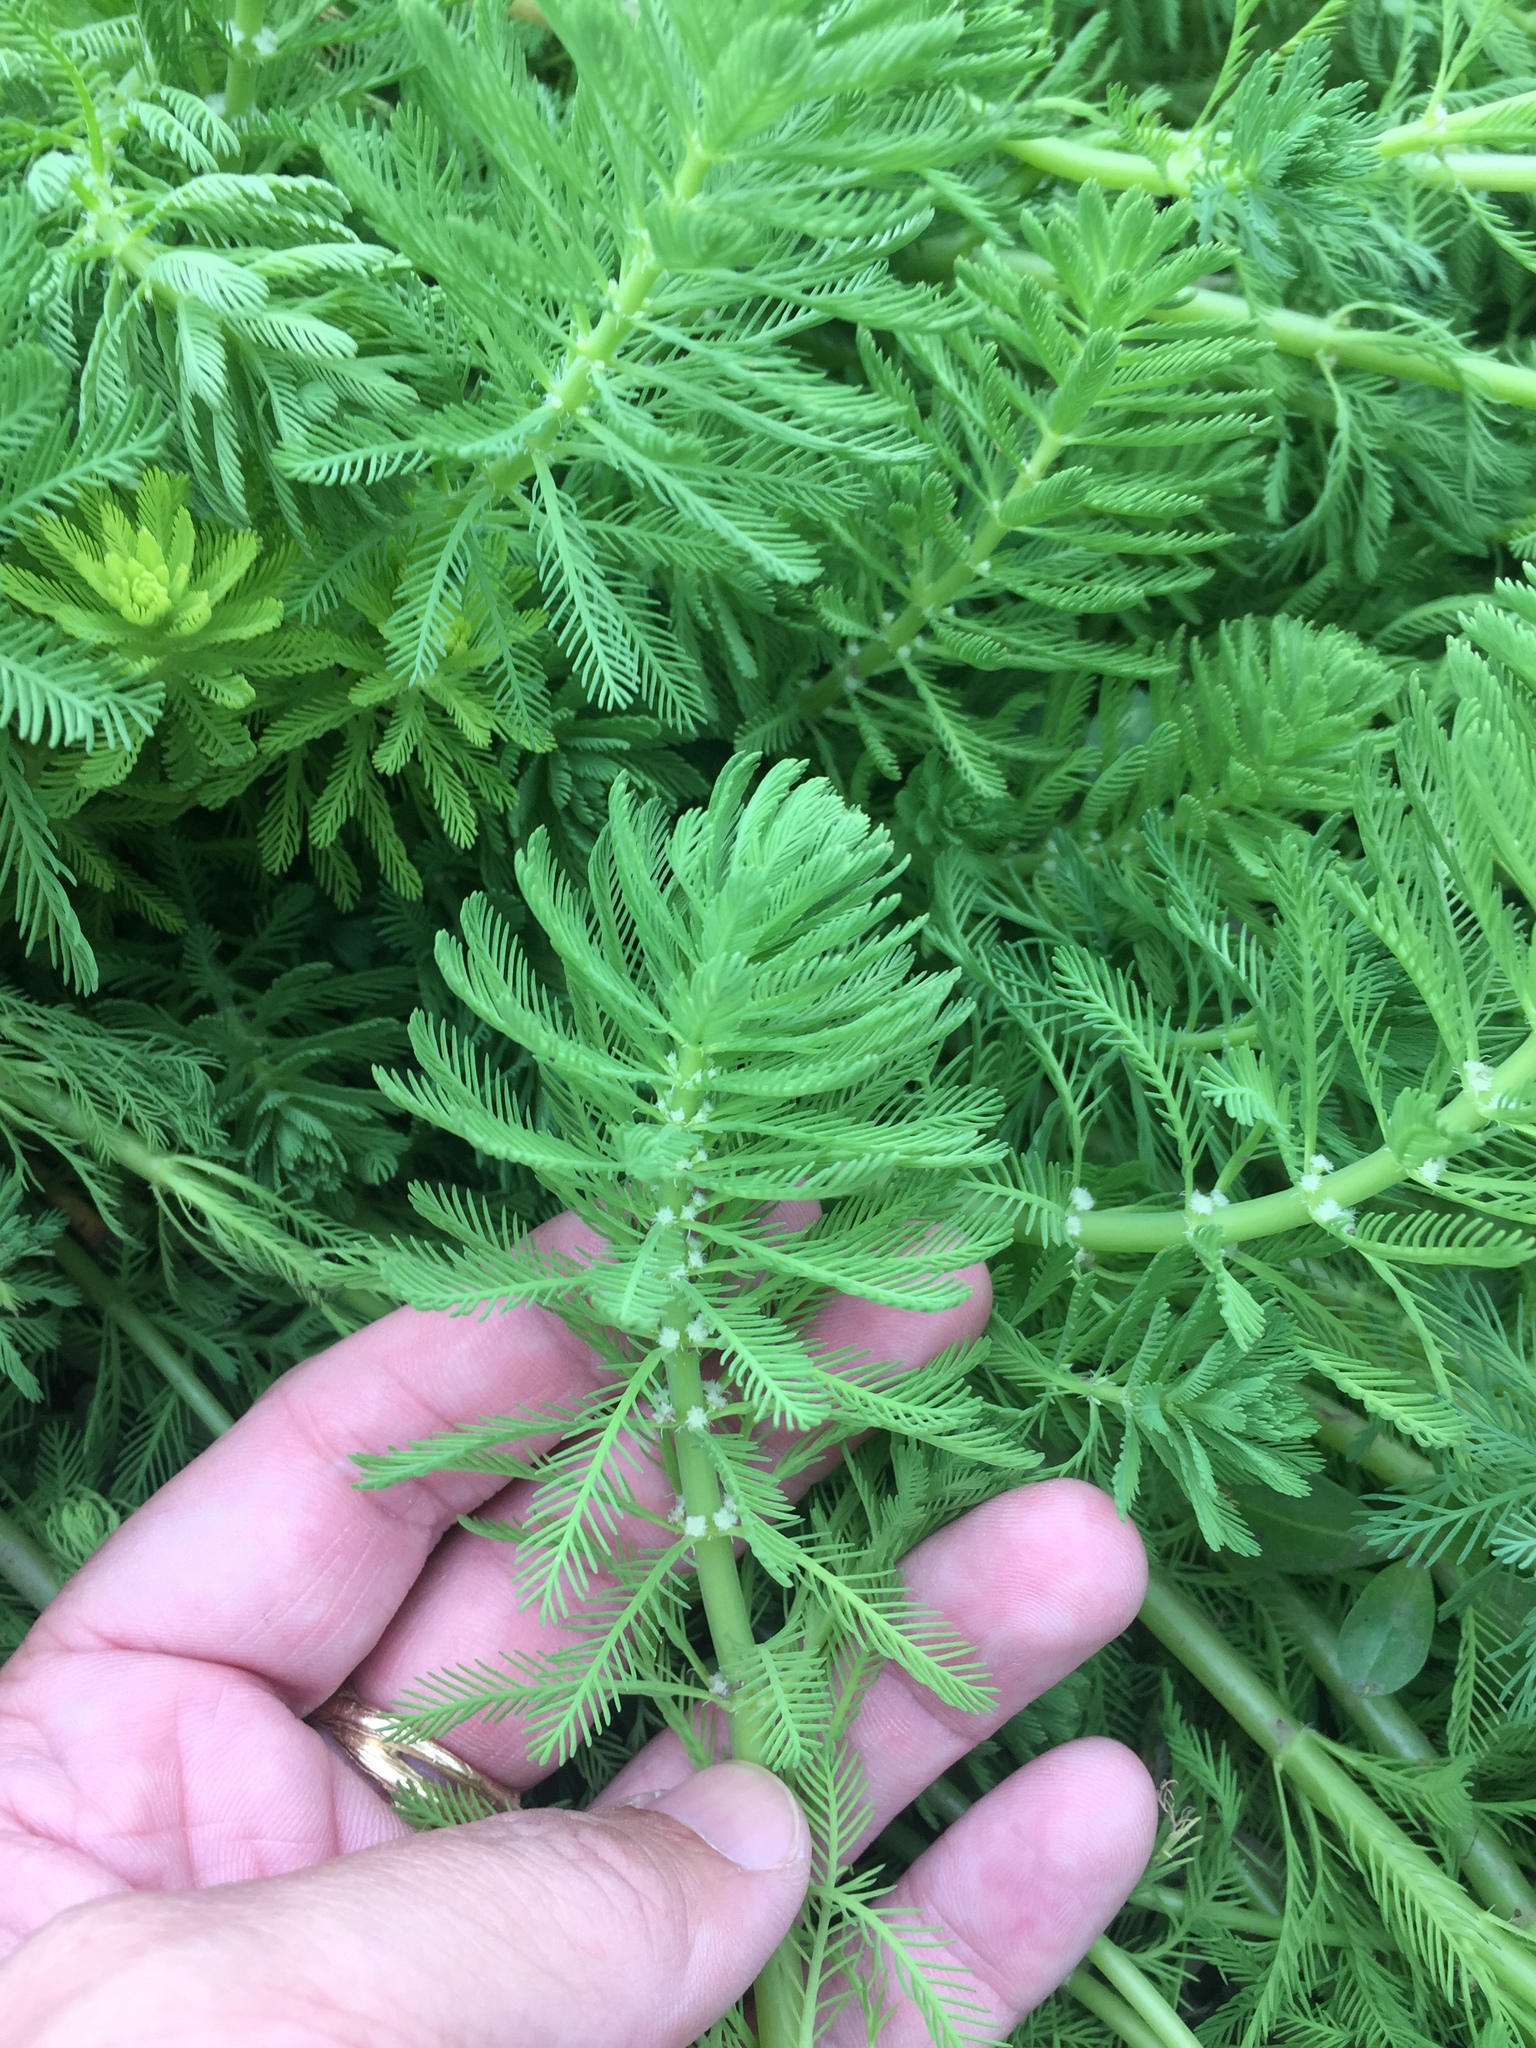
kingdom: Plantae
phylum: Tracheophyta
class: Magnoliopsida
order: Saxifragales
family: Haloragaceae
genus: Myriophyllum
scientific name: Myriophyllum aquaticum
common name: Parrot's feather
